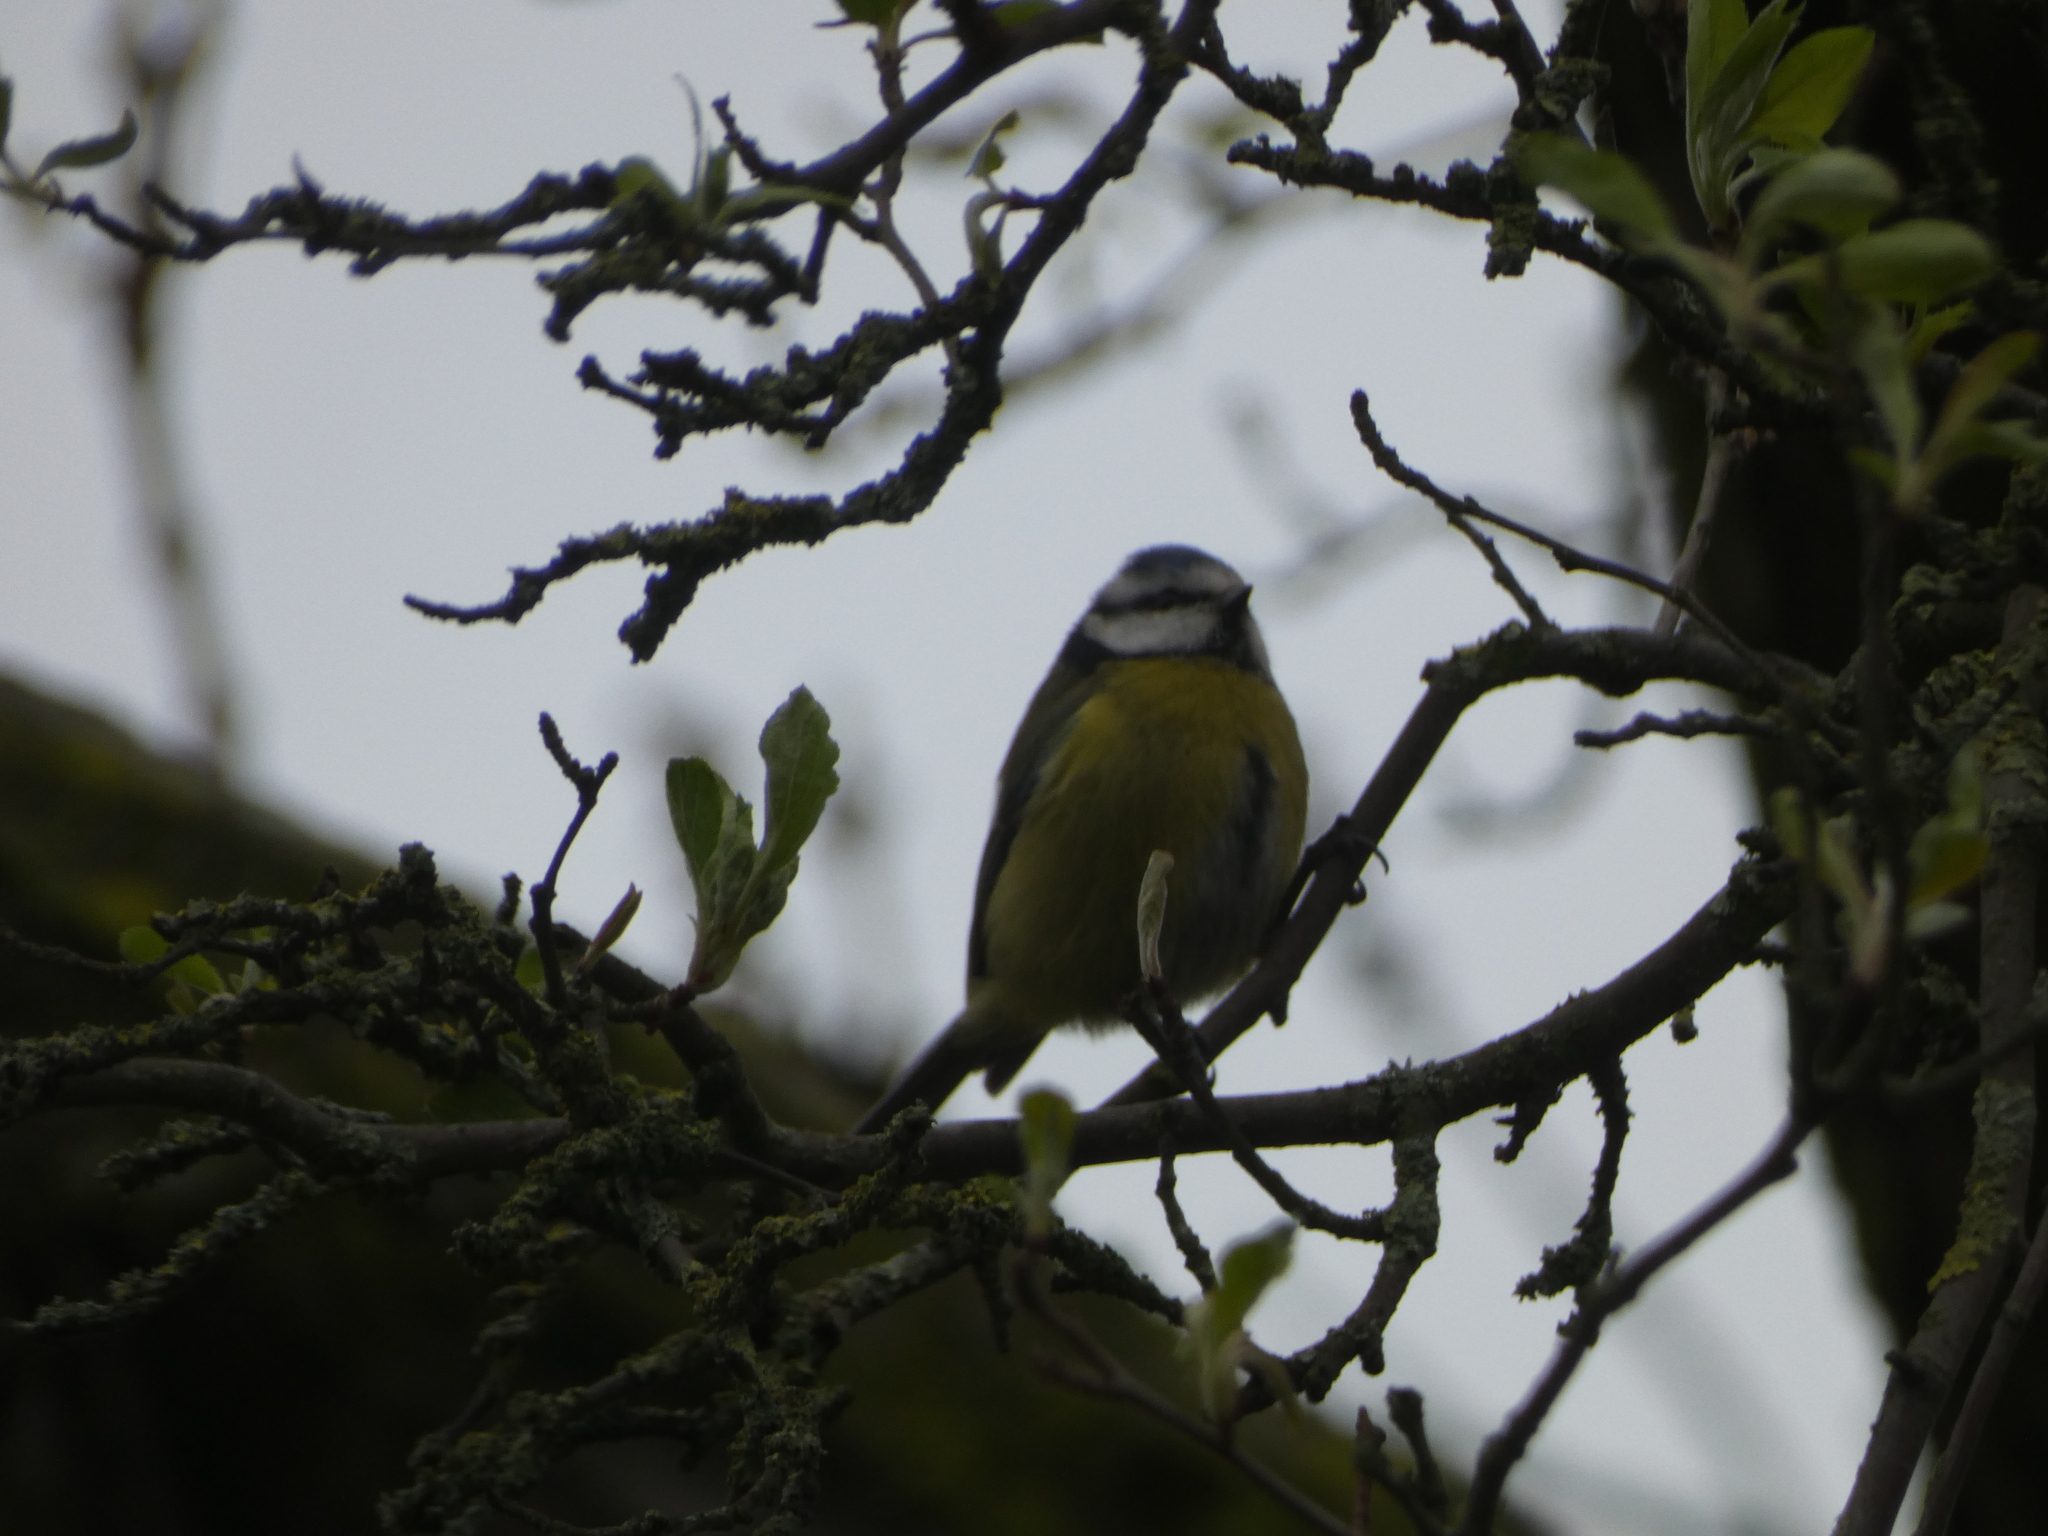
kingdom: Animalia
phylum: Chordata
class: Aves
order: Passeriformes
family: Paridae
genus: Cyanistes
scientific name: Cyanistes caeruleus
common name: Eurasian blue tit
